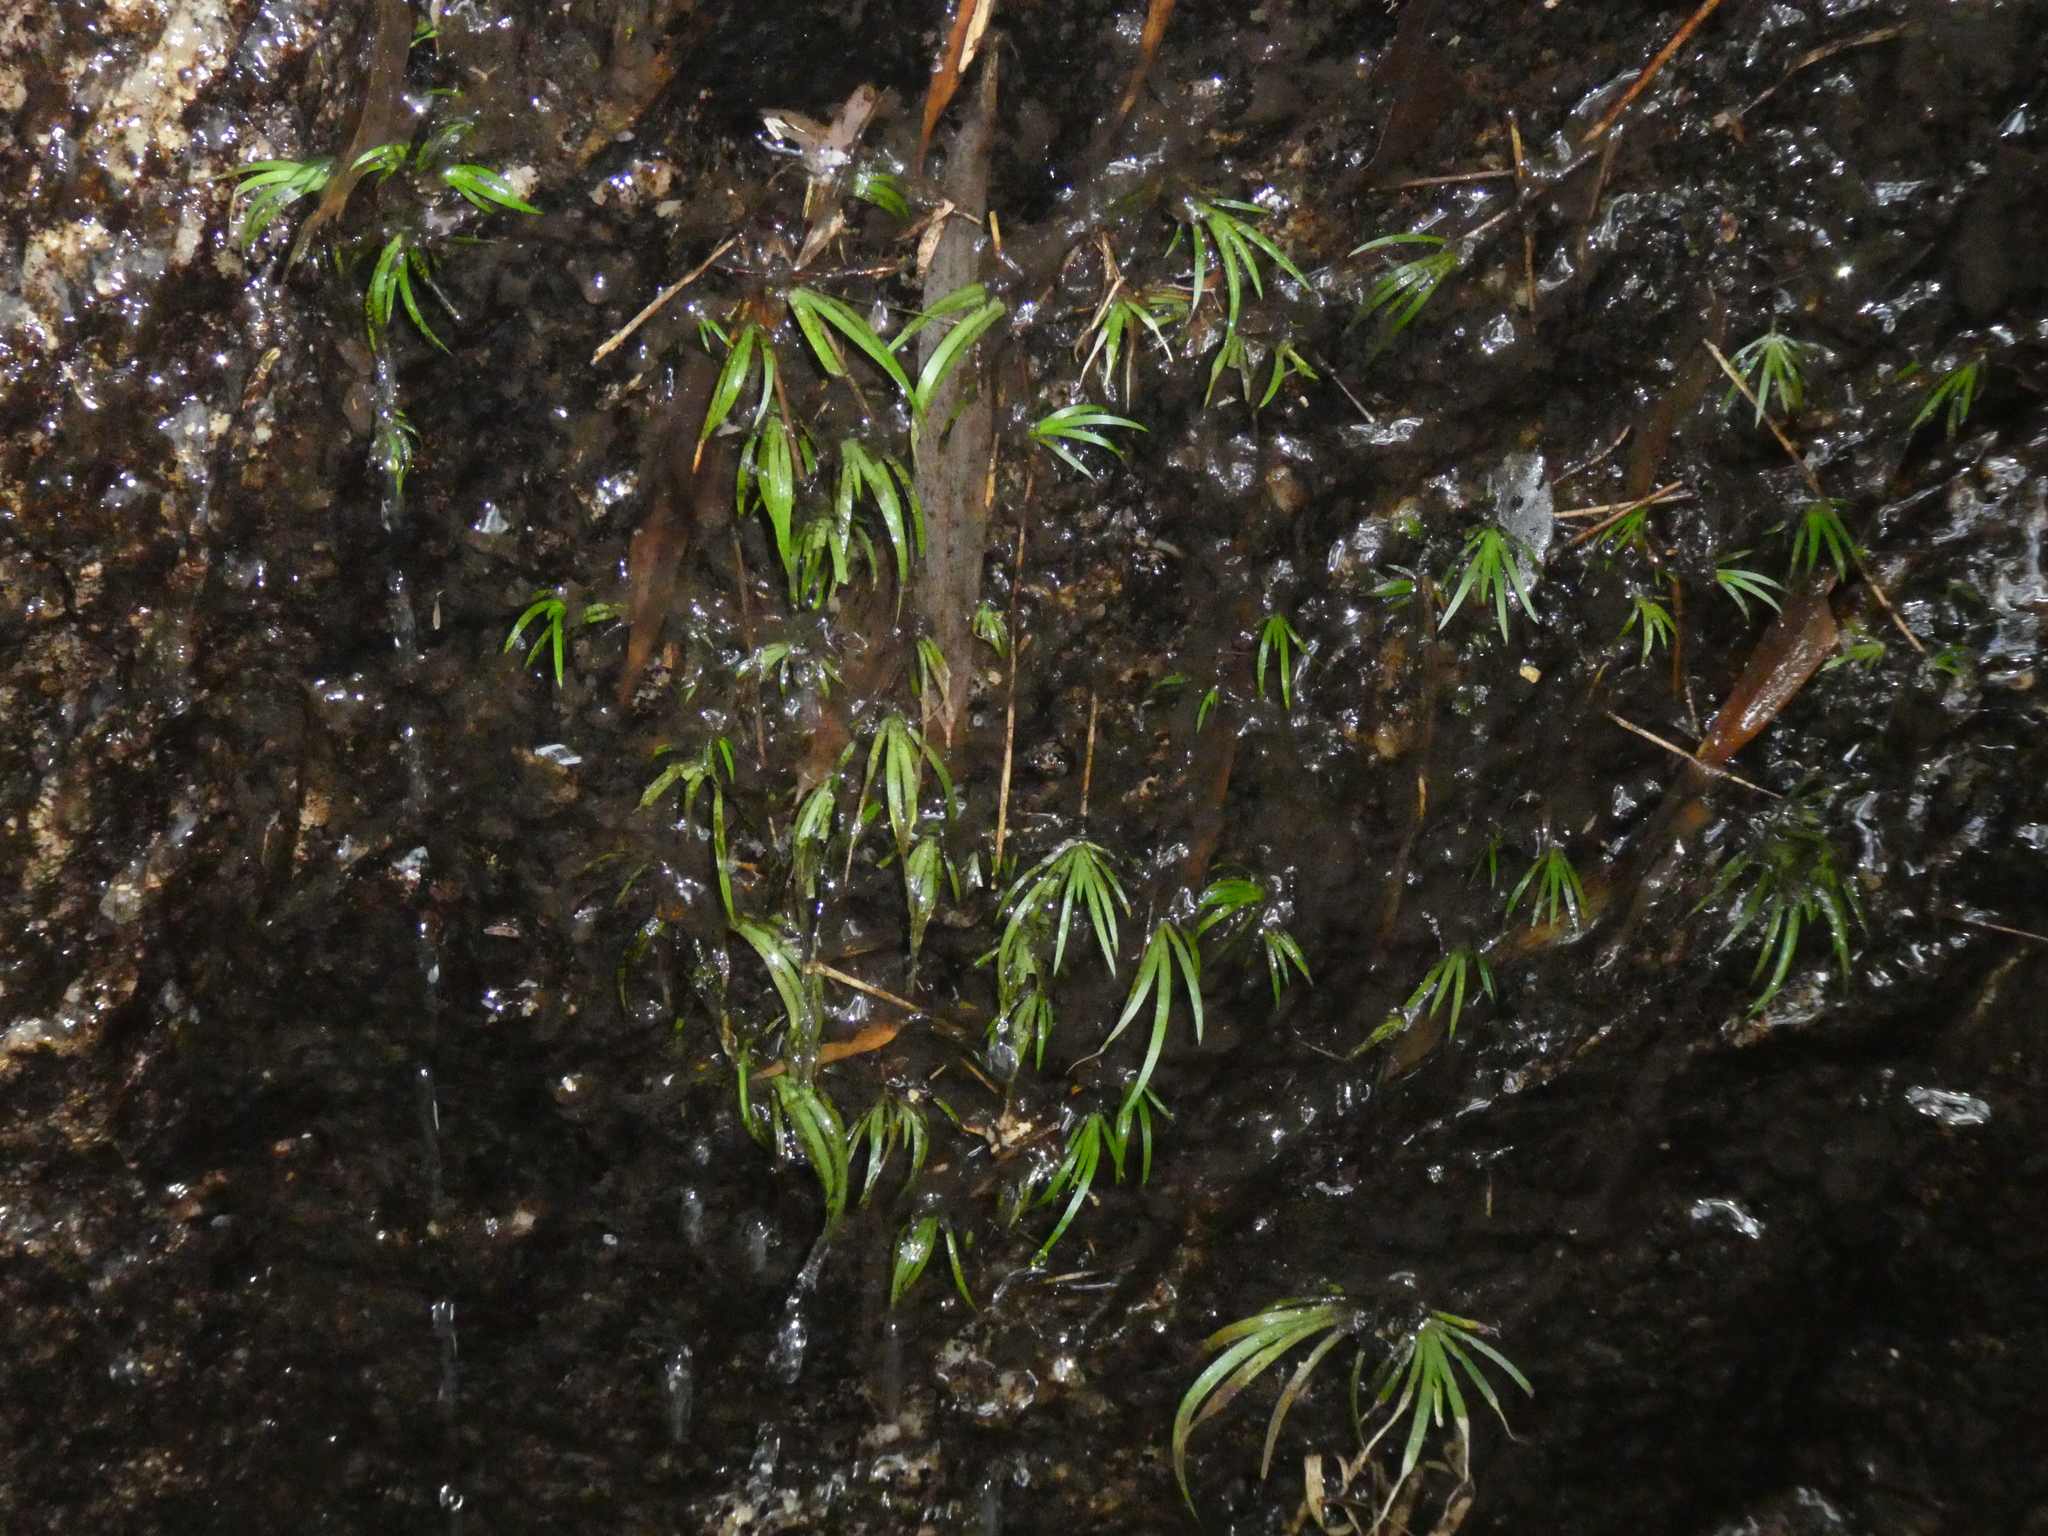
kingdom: Plantae
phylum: Tracheophyta
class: Liliopsida
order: Acorales
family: Acoraceae
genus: Acorus
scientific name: Acorus gramineus
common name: Slender sweet-flag
